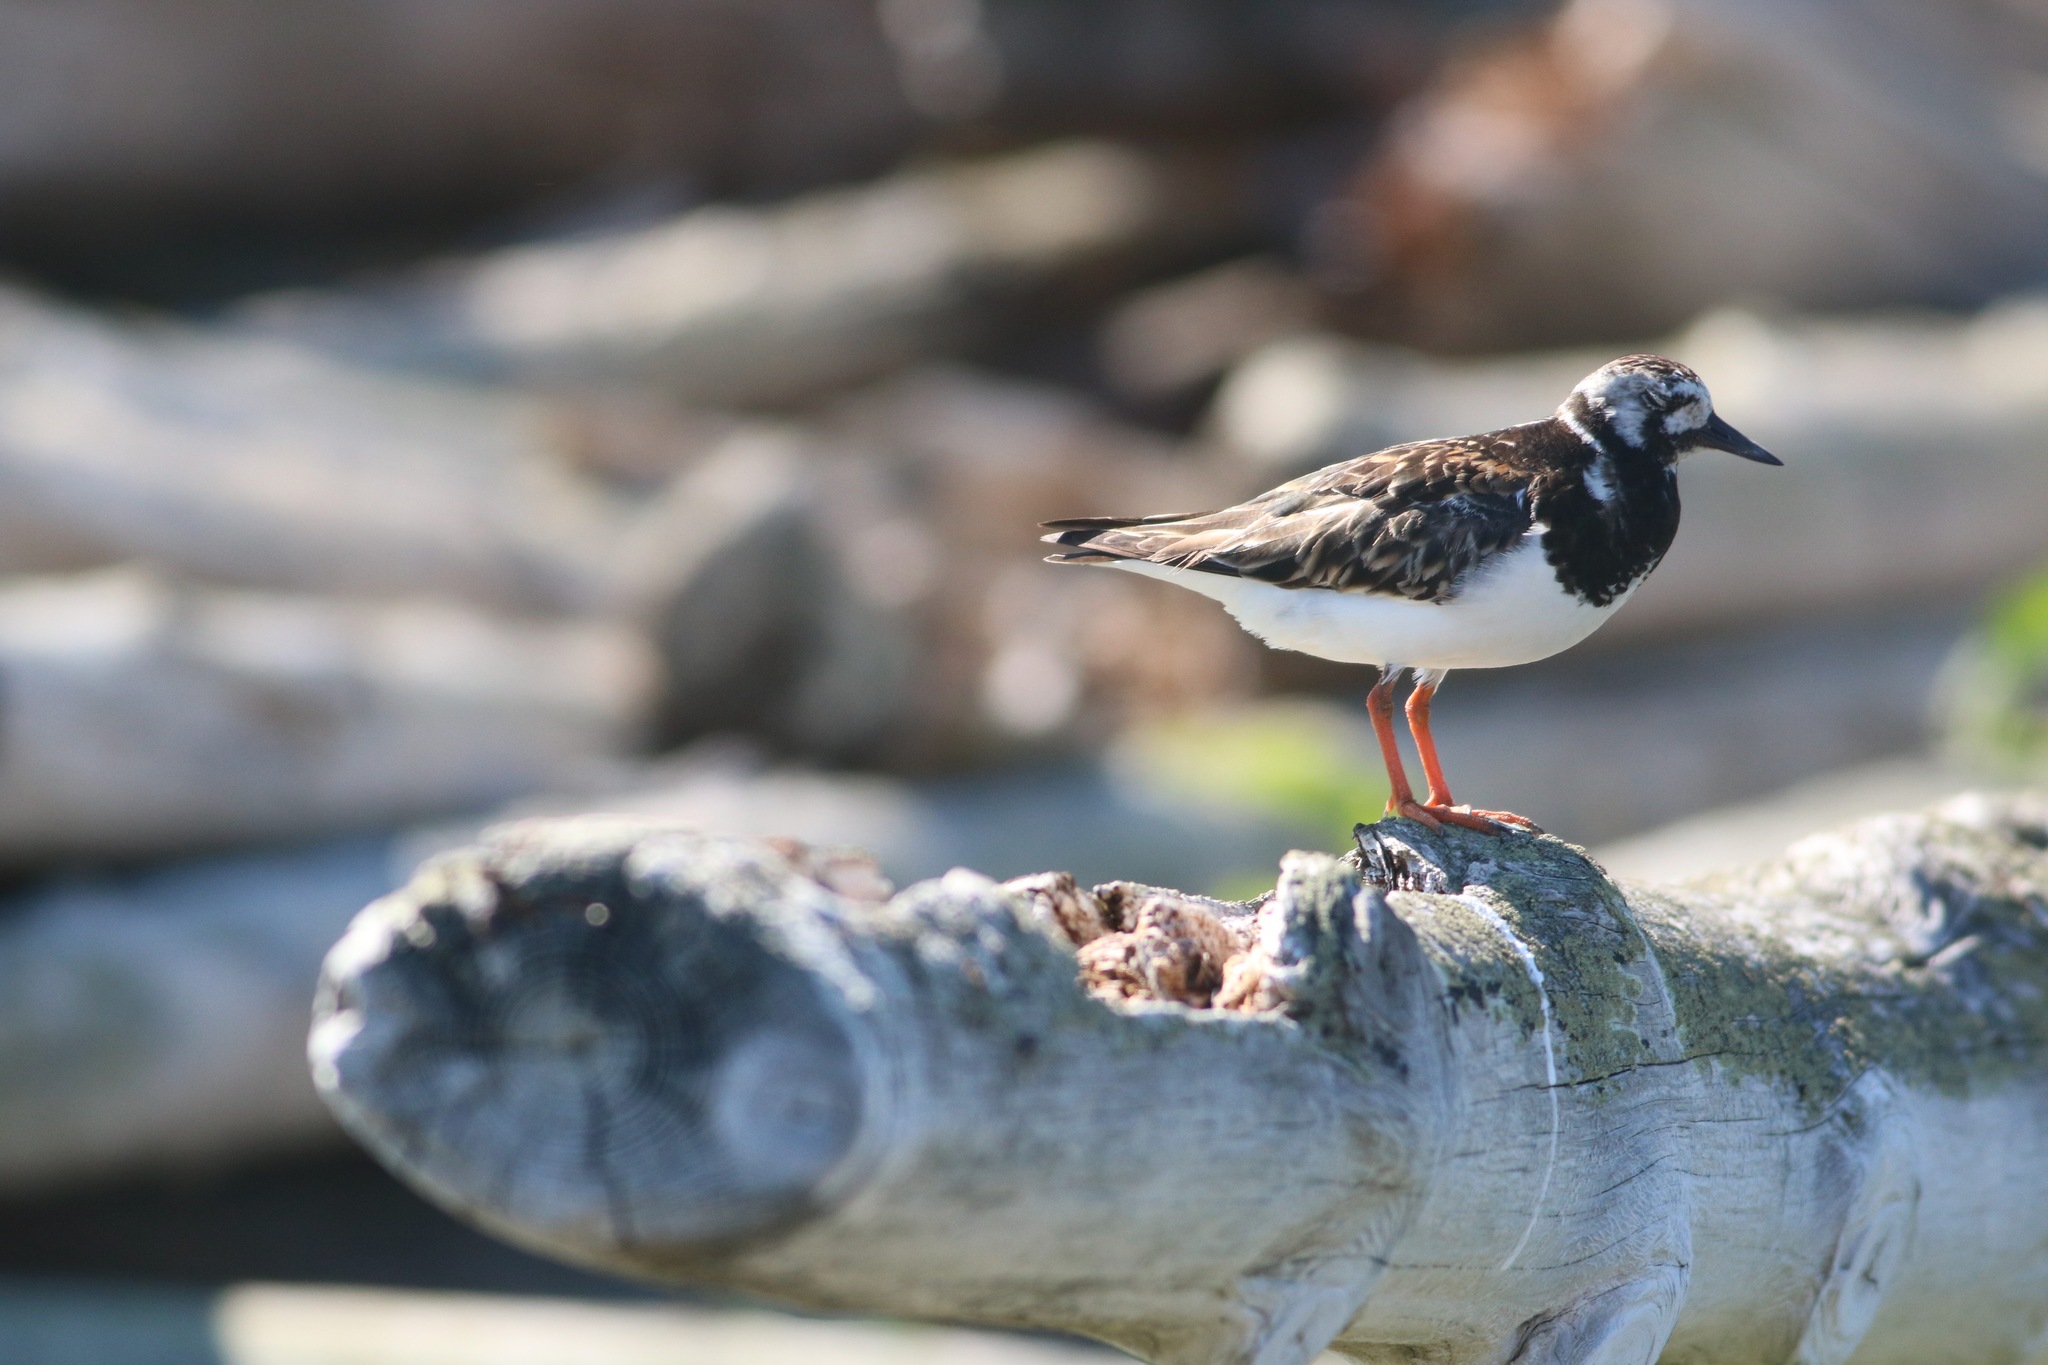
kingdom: Animalia
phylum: Chordata
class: Aves
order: Charadriiformes
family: Scolopacidae
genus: Arenaria
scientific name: Arenaria interpres
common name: Ruddy turnstone
